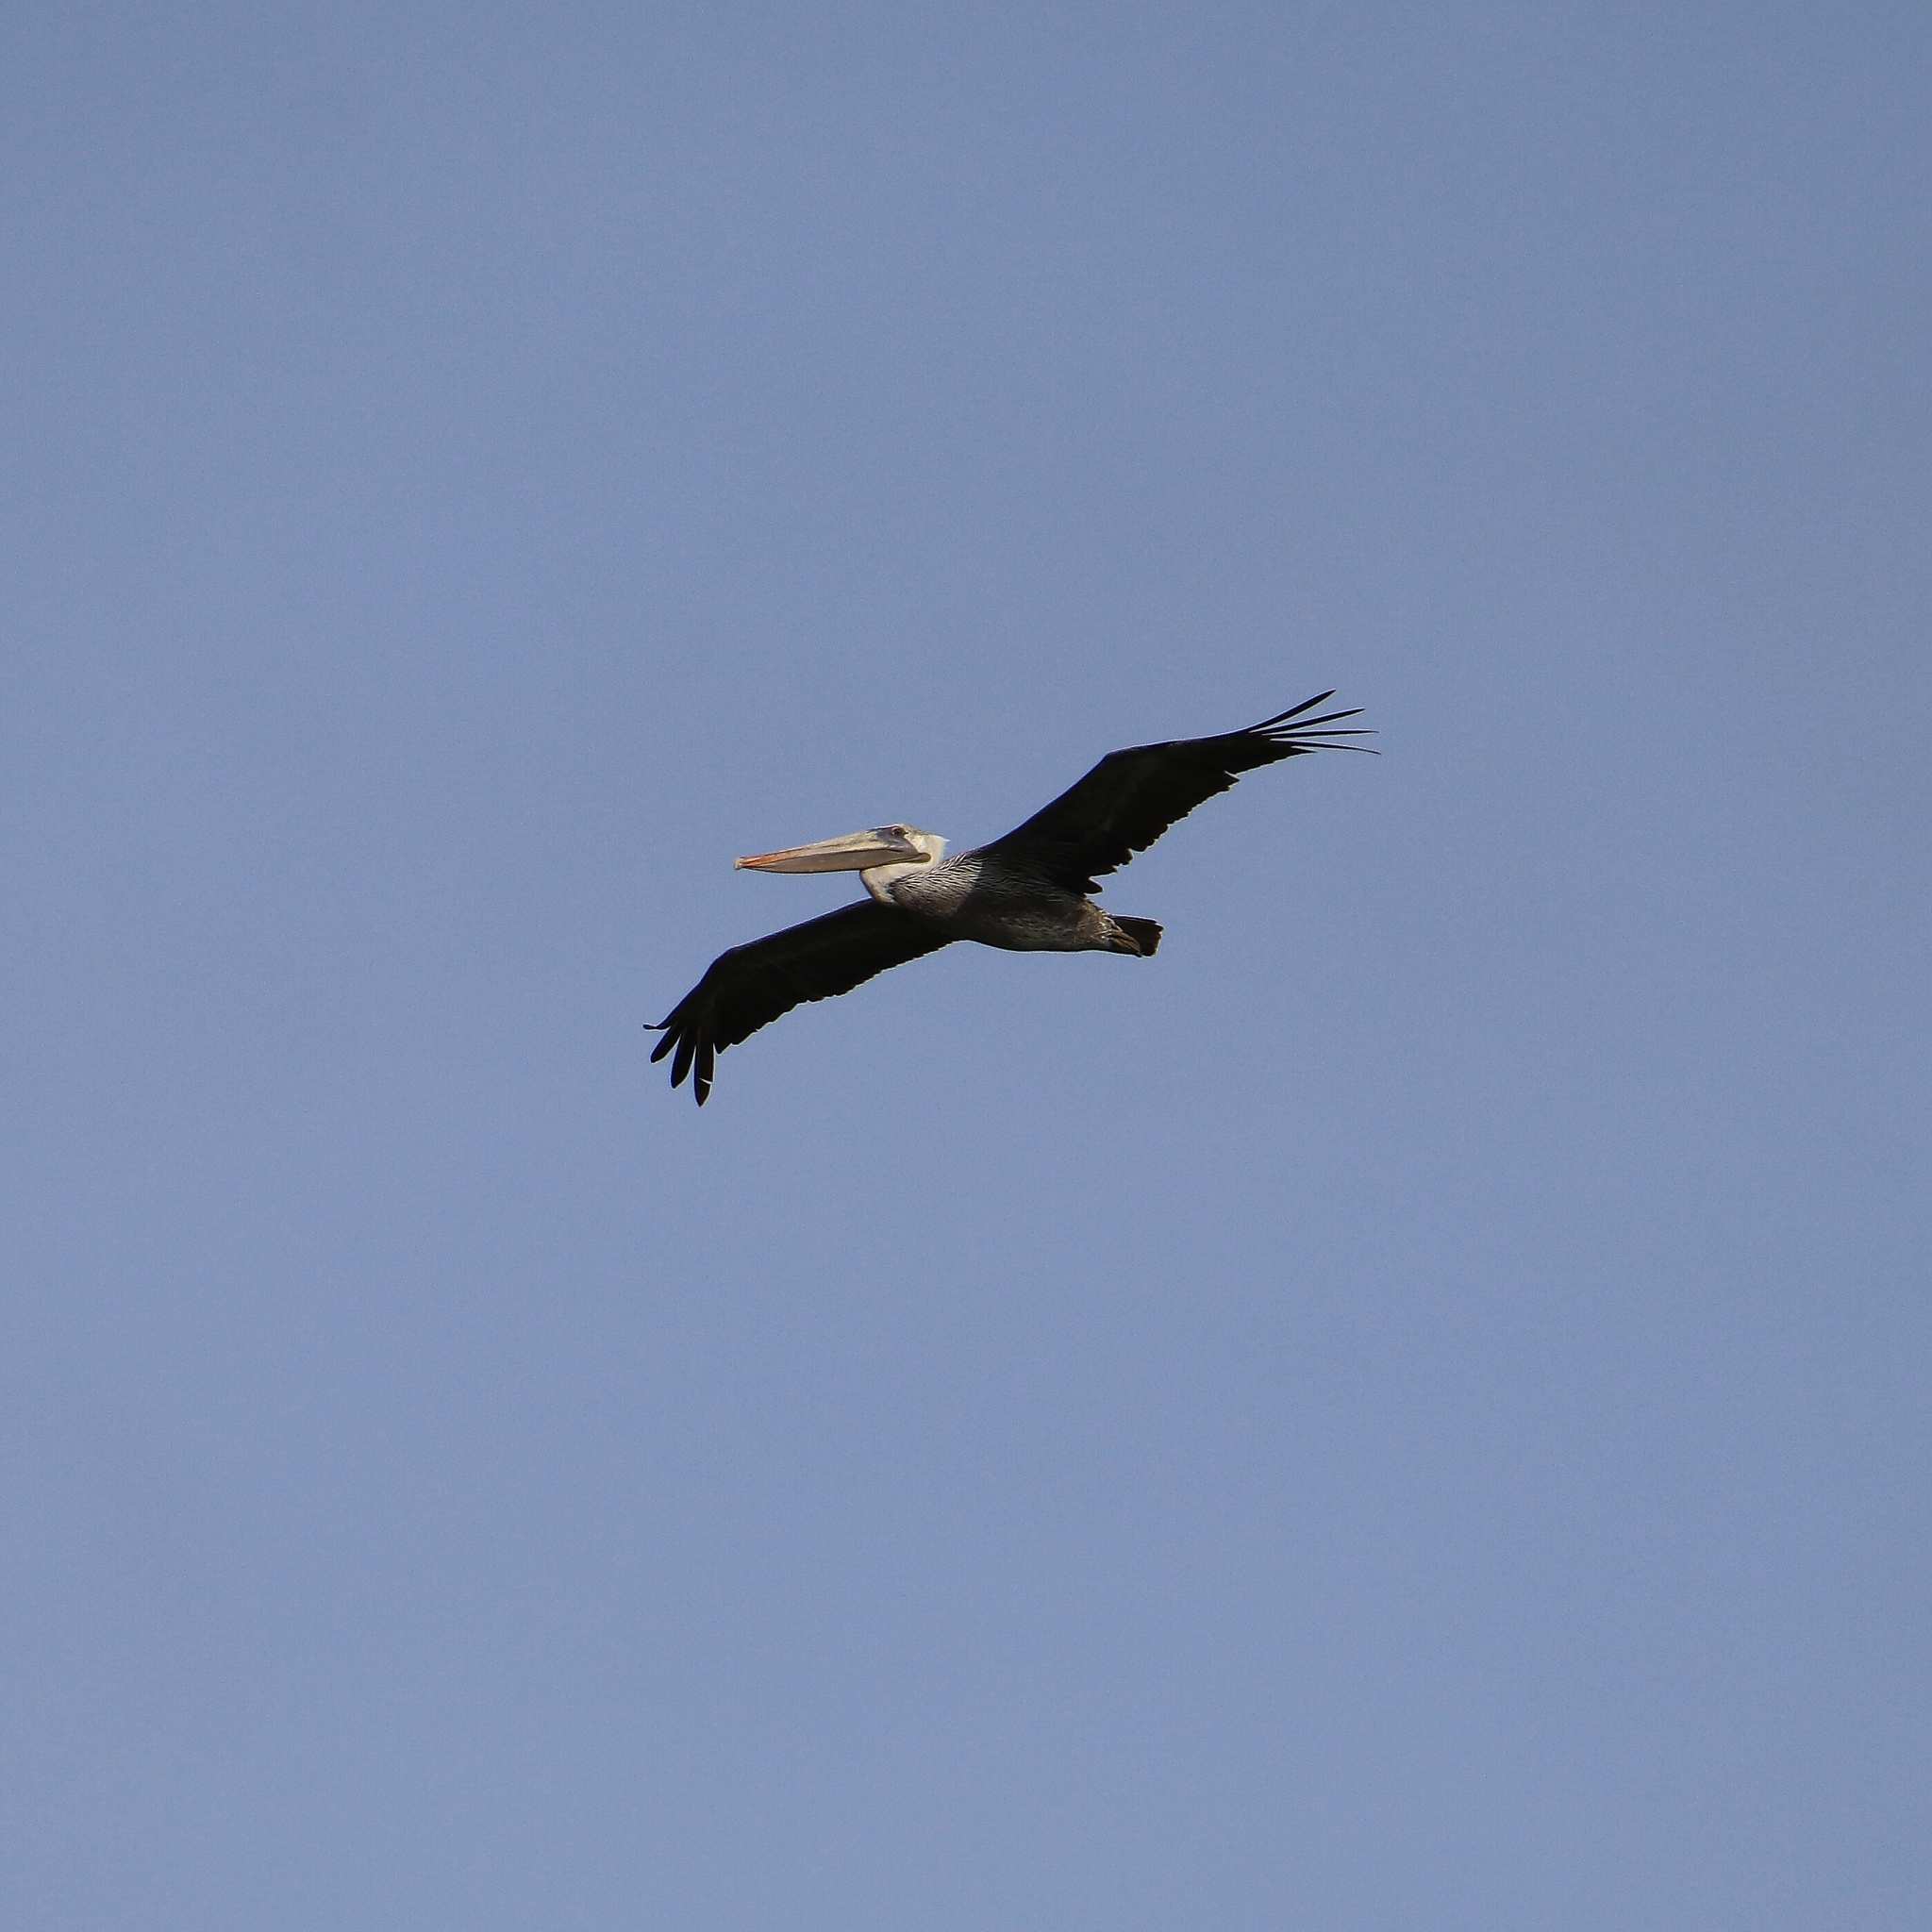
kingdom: Animalia
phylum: Chordata
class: Aves
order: Pelecaniformes
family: Pelecanidae
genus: Pelecanus
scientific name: Pelecanus occidentalis
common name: Brown pelican
